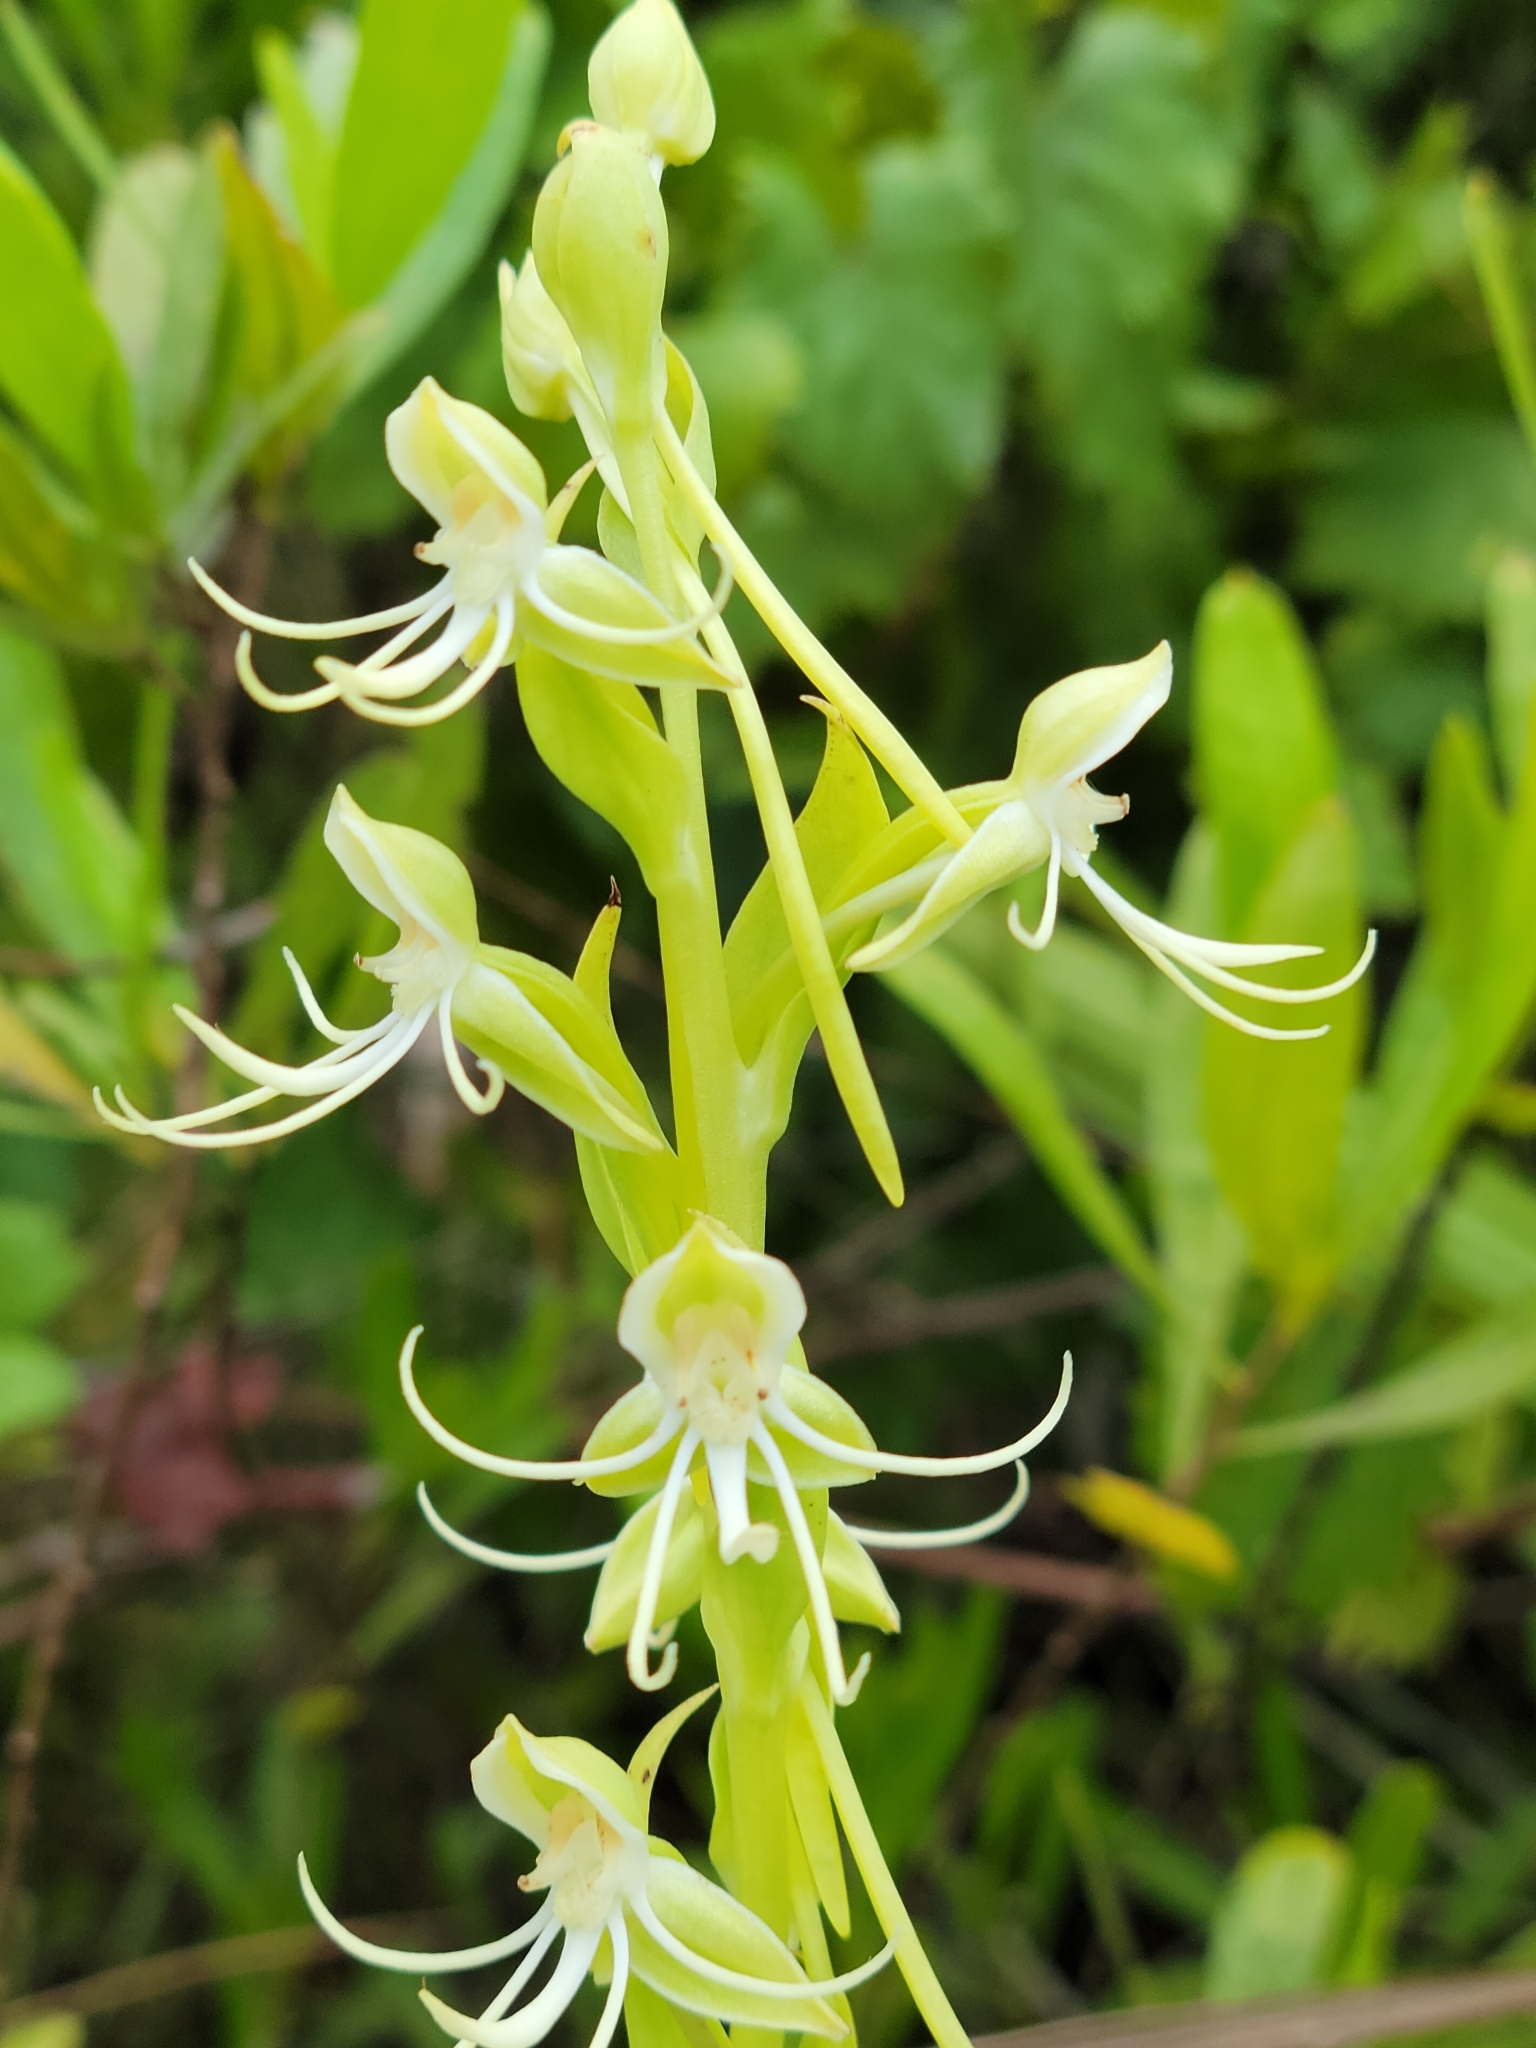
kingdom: Plantae
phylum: Tracheophyta
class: Liliopsida
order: Asparagales
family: Orchidaceae
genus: Habenaria
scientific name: Habenaria quinqueseta
